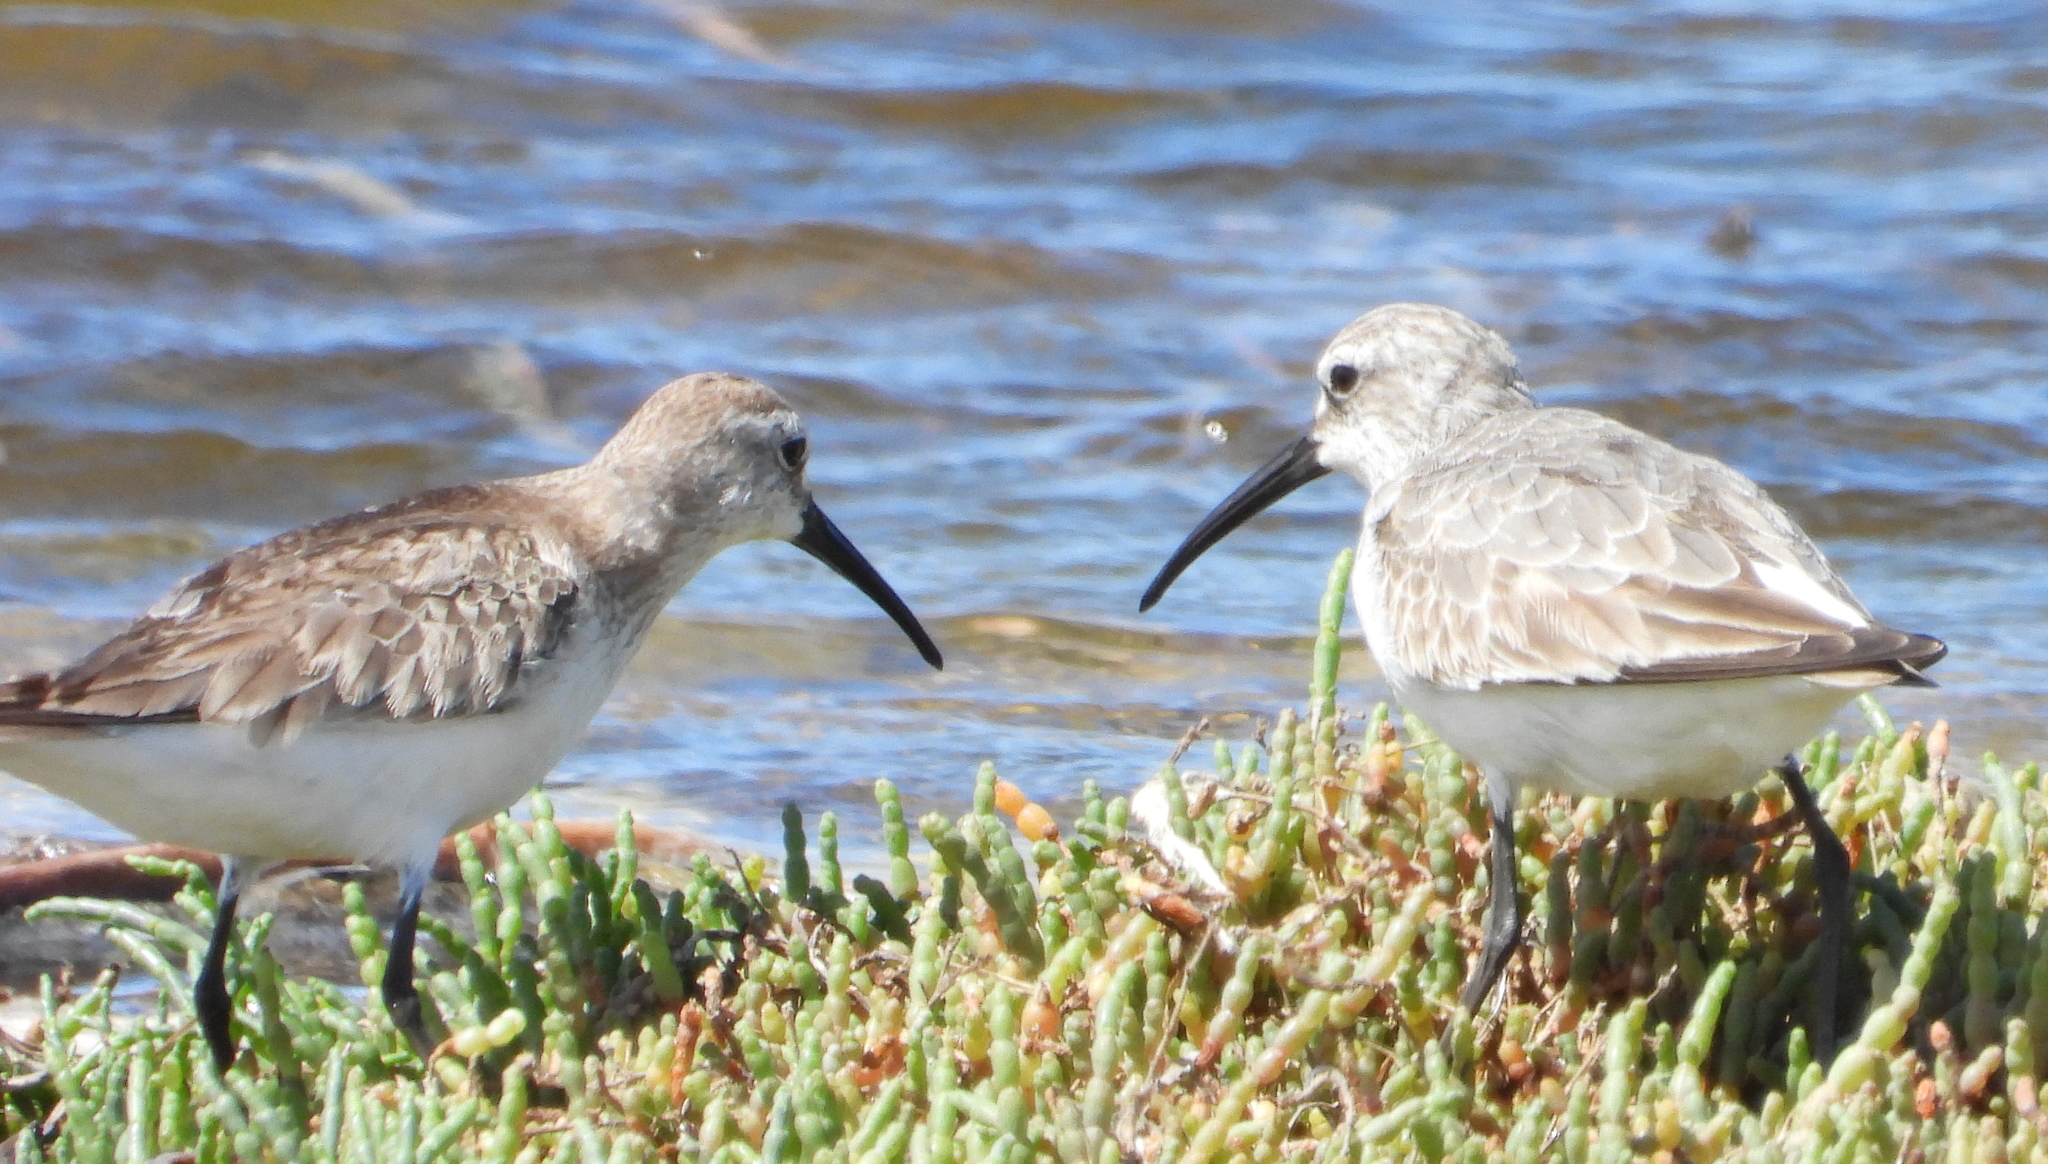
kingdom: Animalia
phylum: Chordata
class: Aves
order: Charadriiformes
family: Scolopacidae
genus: Calidris
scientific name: Calidris ferruginea
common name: Curlew sandpiper
